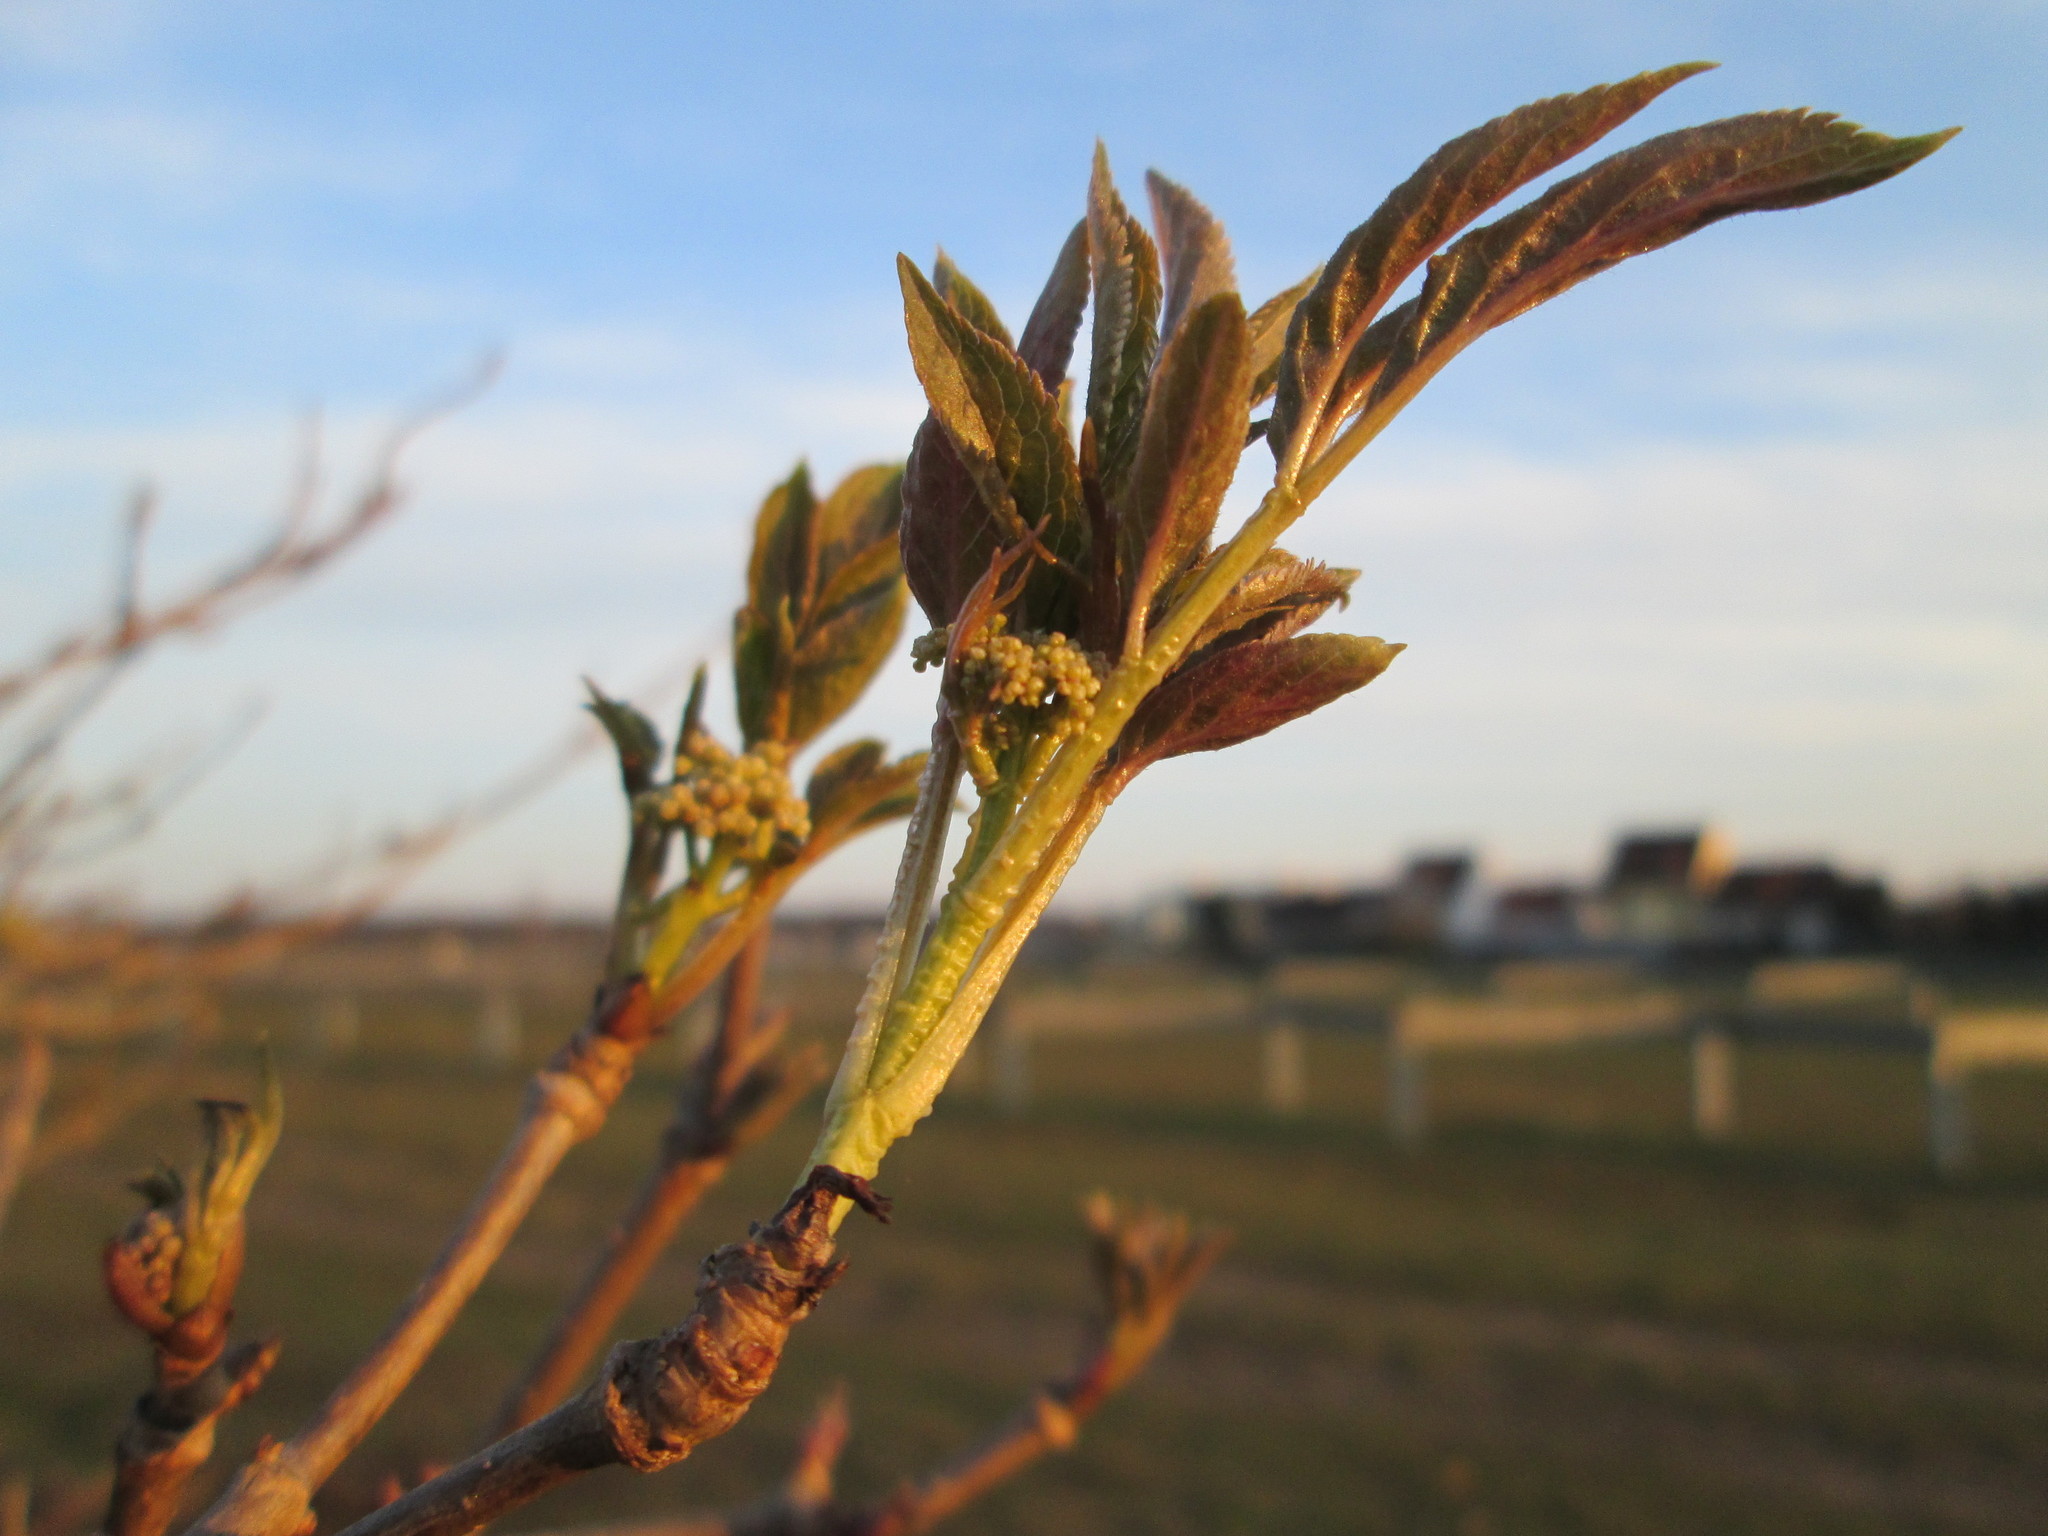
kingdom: Plantae
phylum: Tracheophyta
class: Magnoliopsida
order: Dipsacales
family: Viburnaceae
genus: Sambucus
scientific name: Sambucus nigra
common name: Elder
